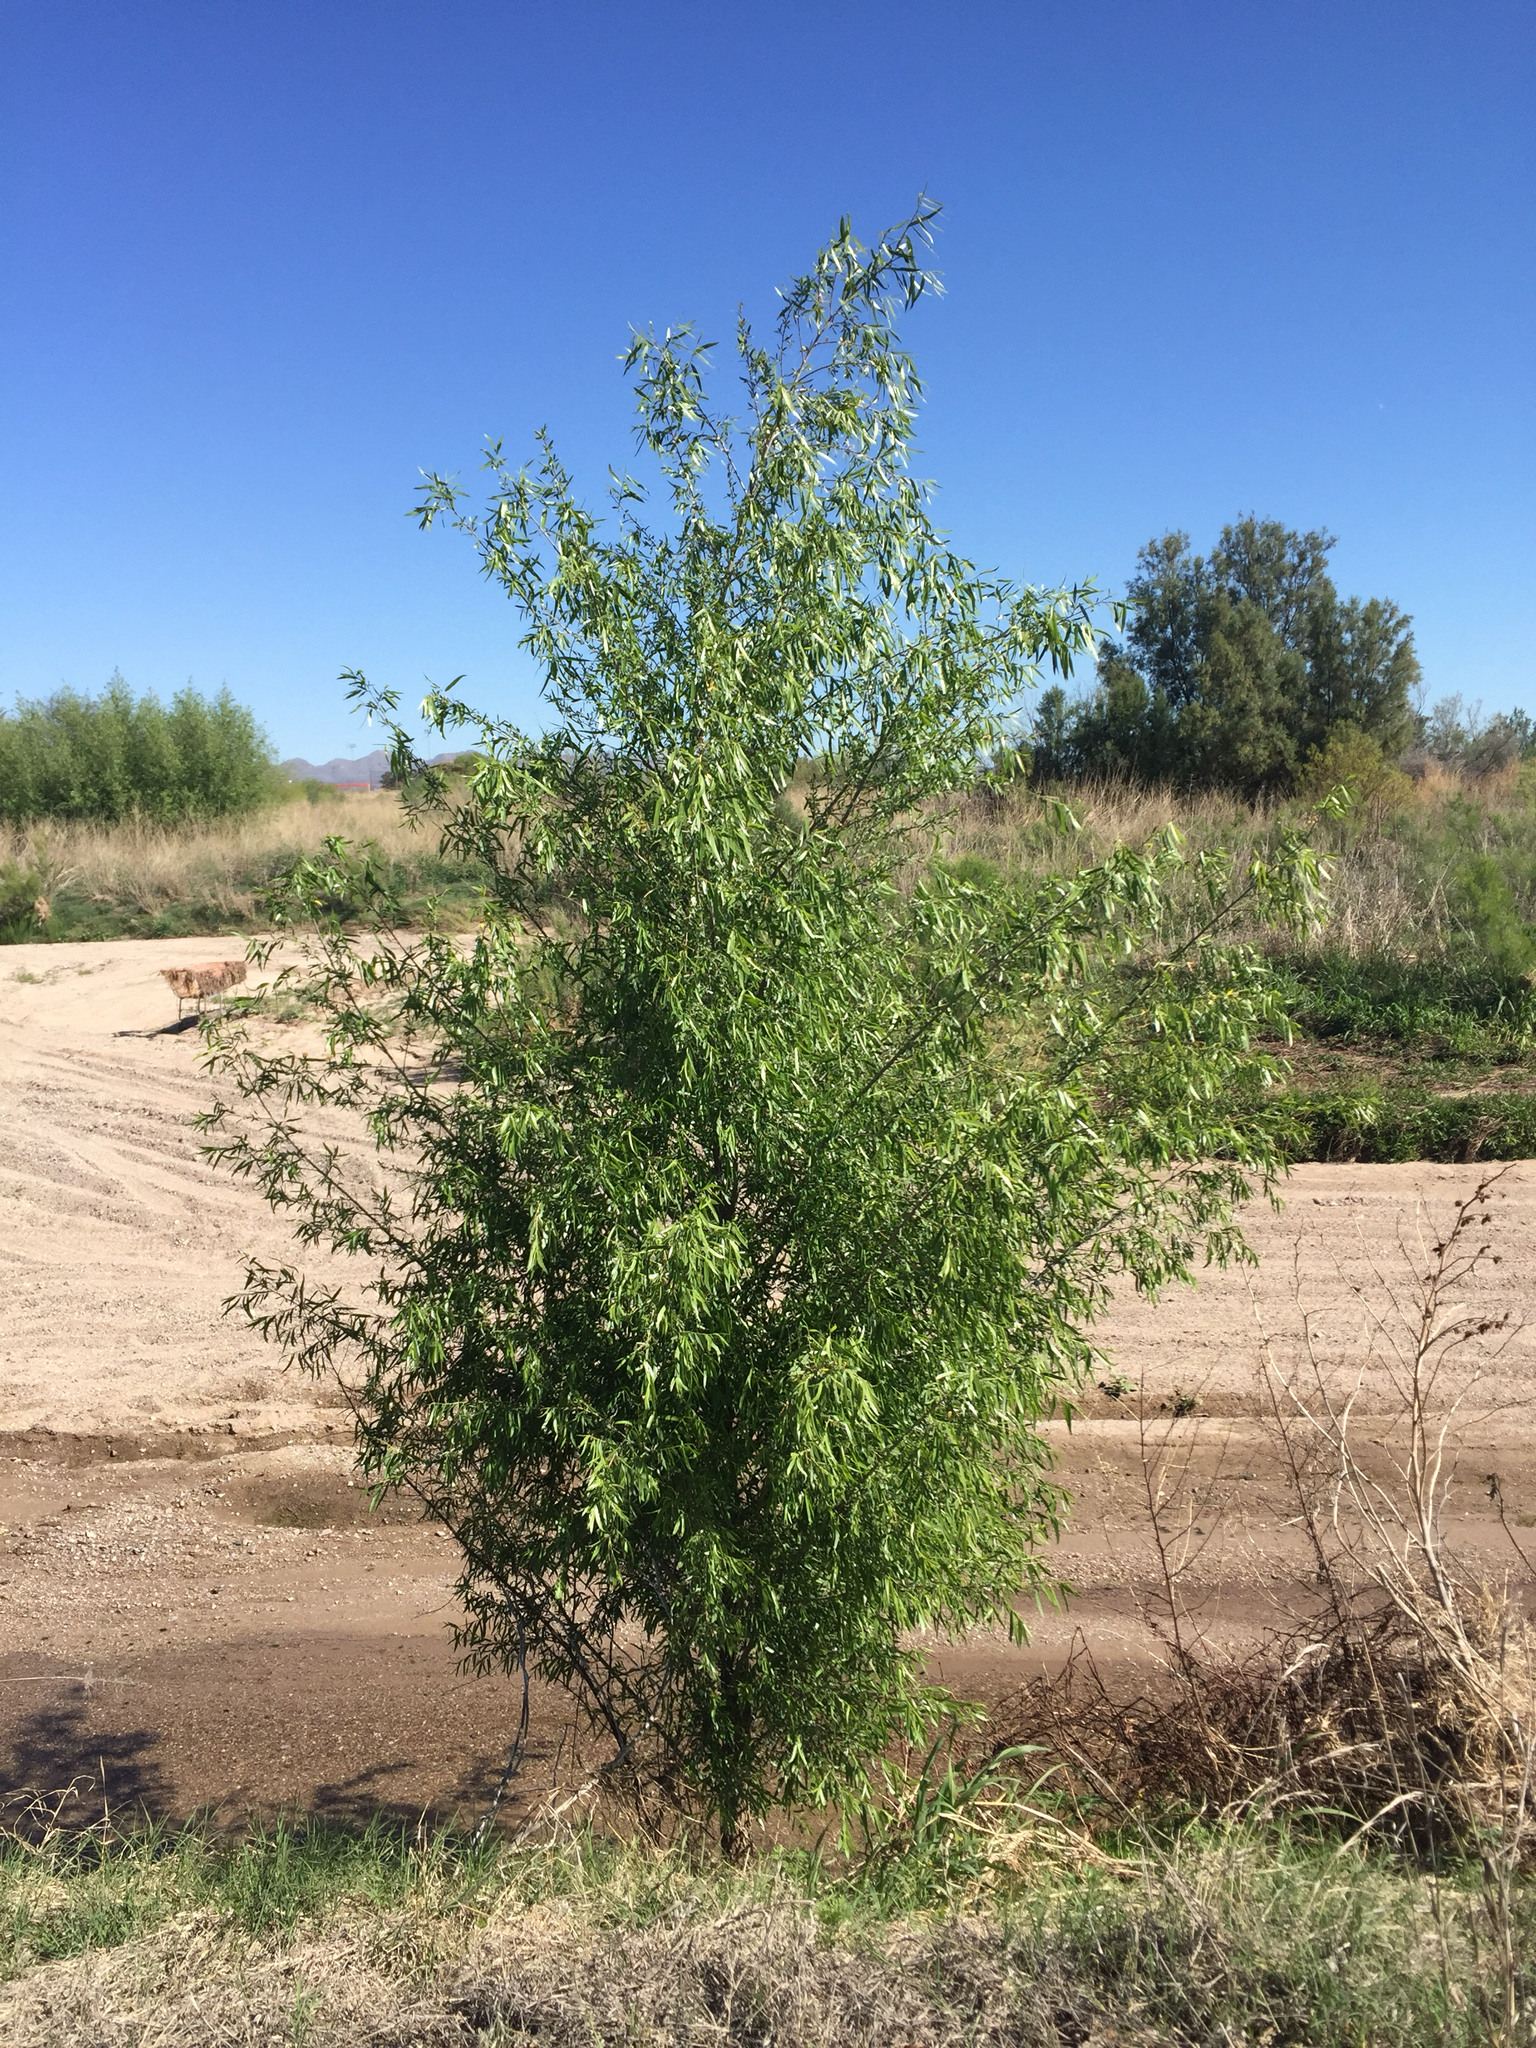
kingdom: Plantae
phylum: Tracheophyta
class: Magnoliopsida
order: Malpighiales
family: Salicaceae
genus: Salix
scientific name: Salix gooddingii
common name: Goodding's willow
